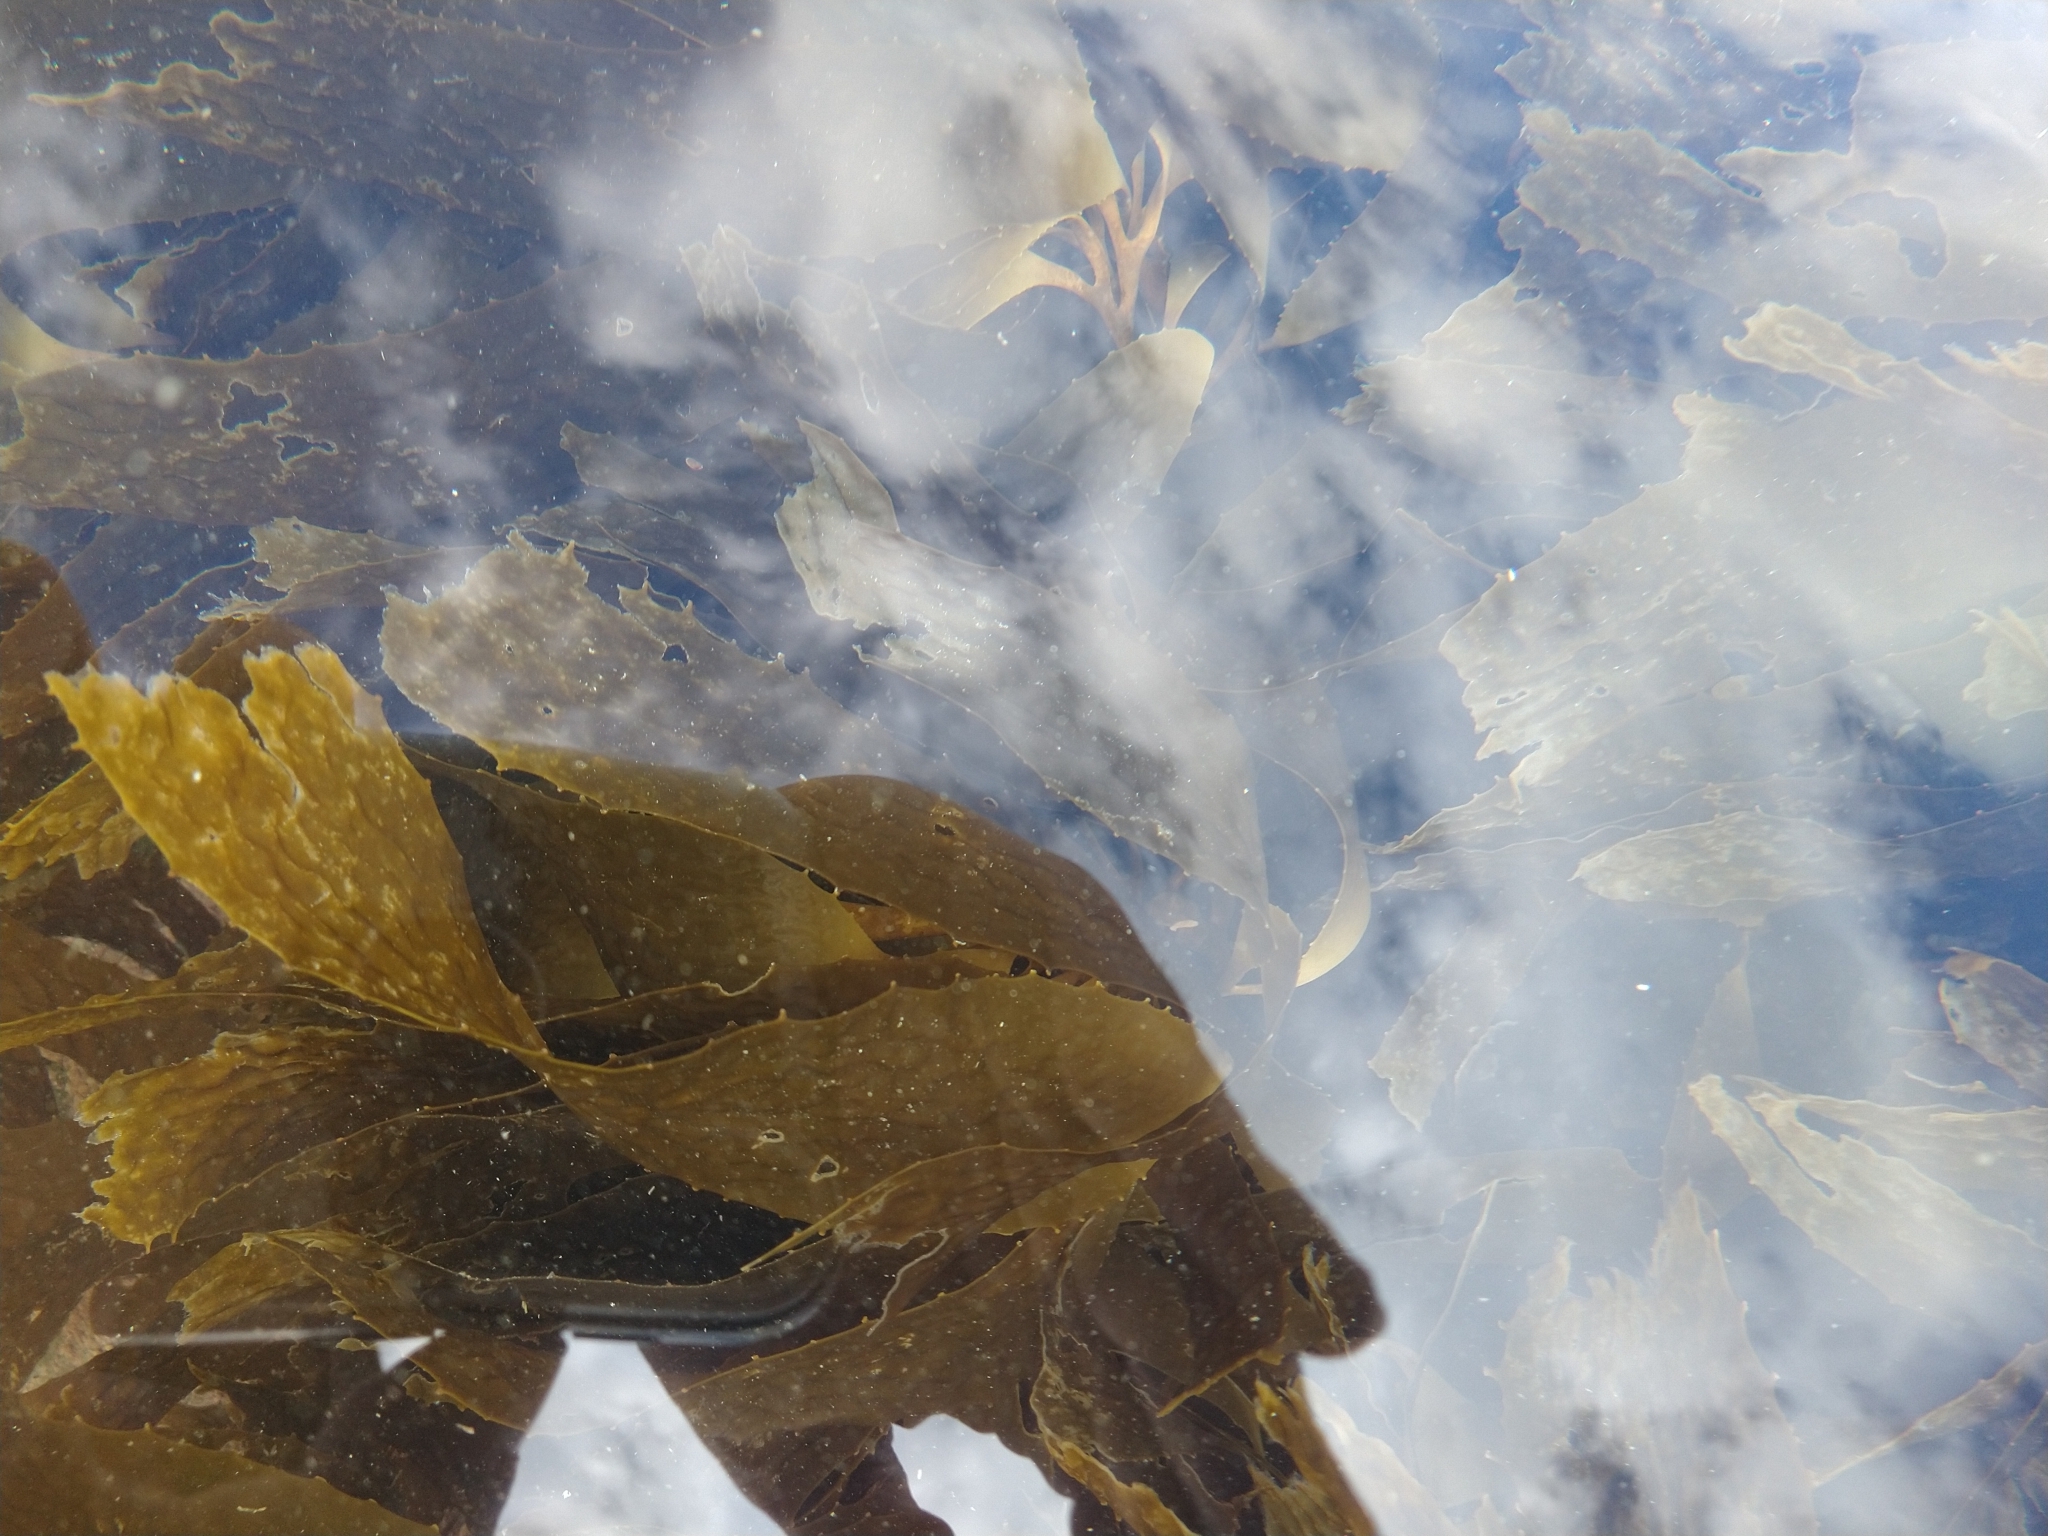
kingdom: Chromista
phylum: Ochrophyta
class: Phaeophyceae
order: Laminariales
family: Laminariaceae
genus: Macrocystis
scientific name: Macrocystis pyrifera
